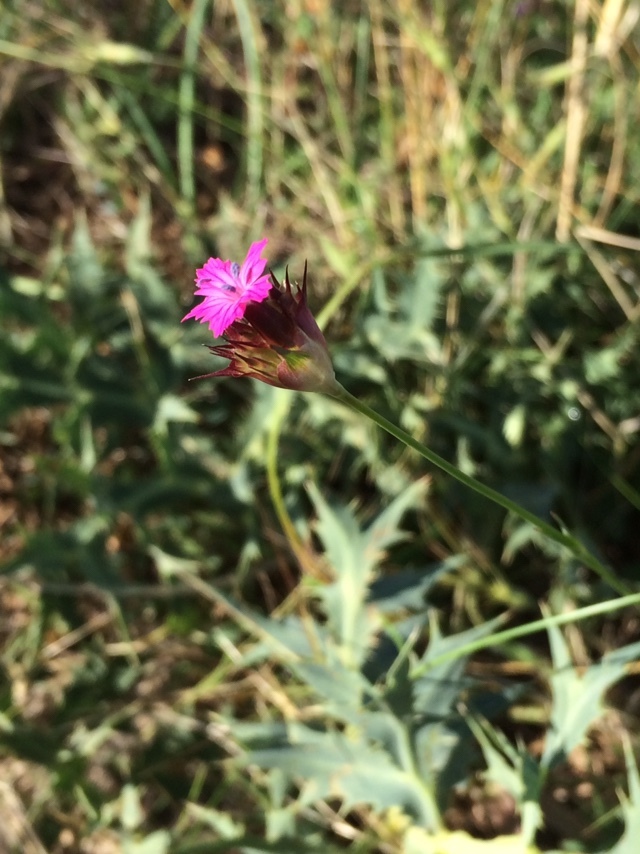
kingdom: Plantae
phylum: Tracheophyta
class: Magnoliopsida
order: Caryophyllales
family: Caryophyllaceae
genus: Dianthus
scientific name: Dianthus capitatus
